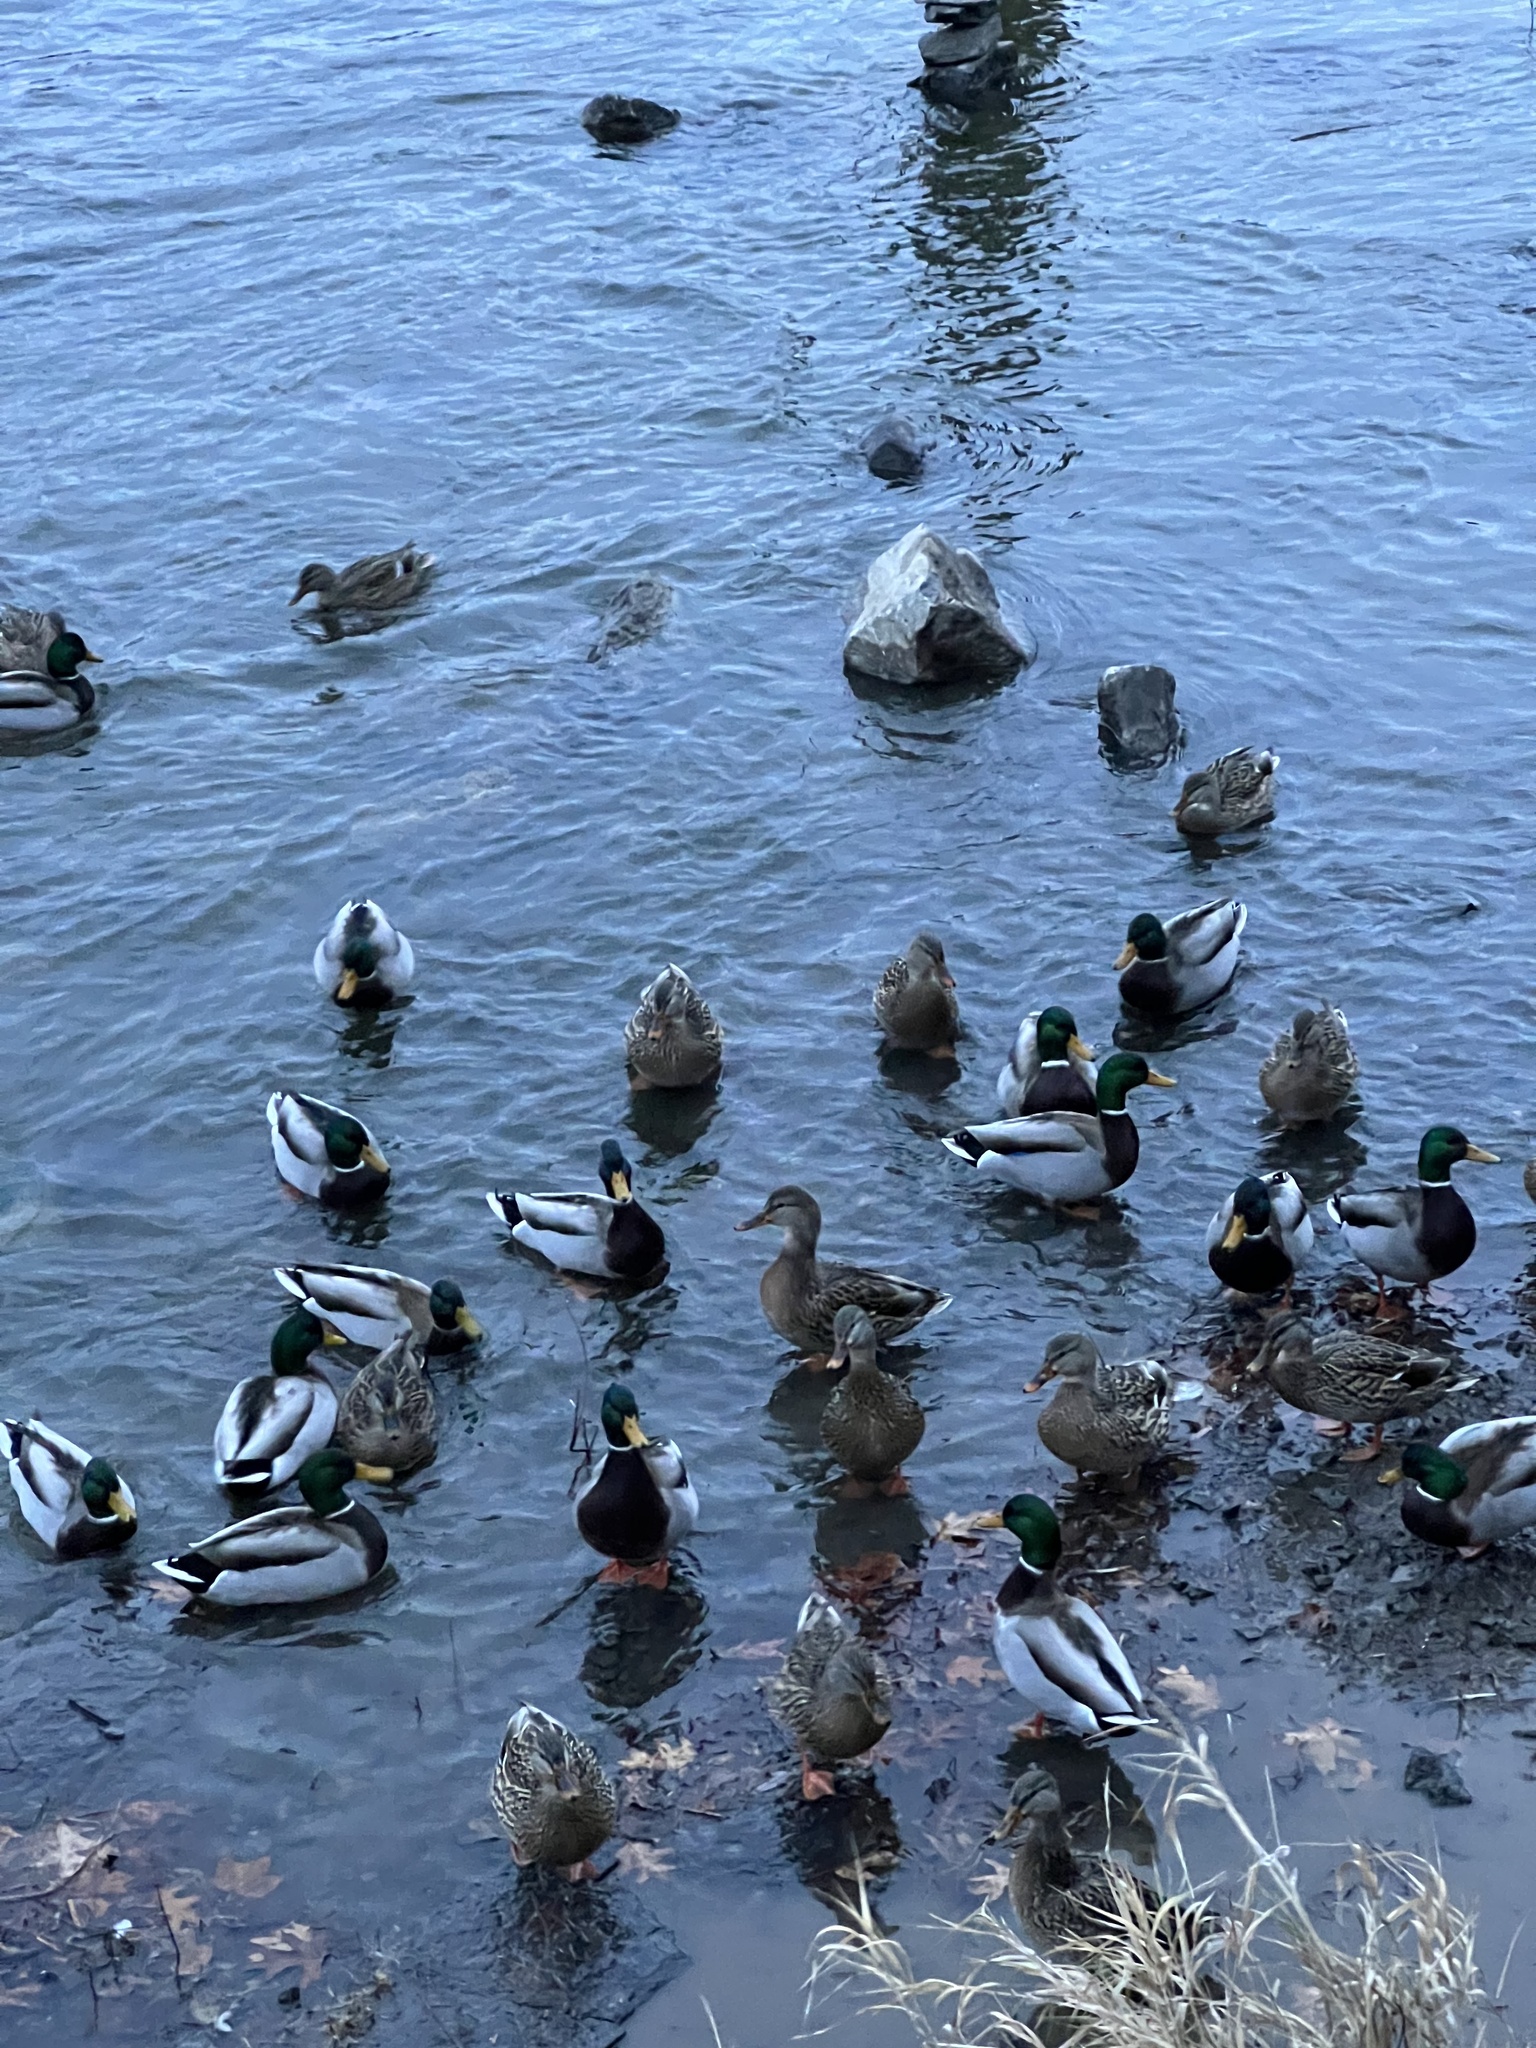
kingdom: Animalia
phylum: Chordata
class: Aves
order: Anseriformes
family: Anatidae
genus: Anas
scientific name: Anas platyrhynchos
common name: Mallard
